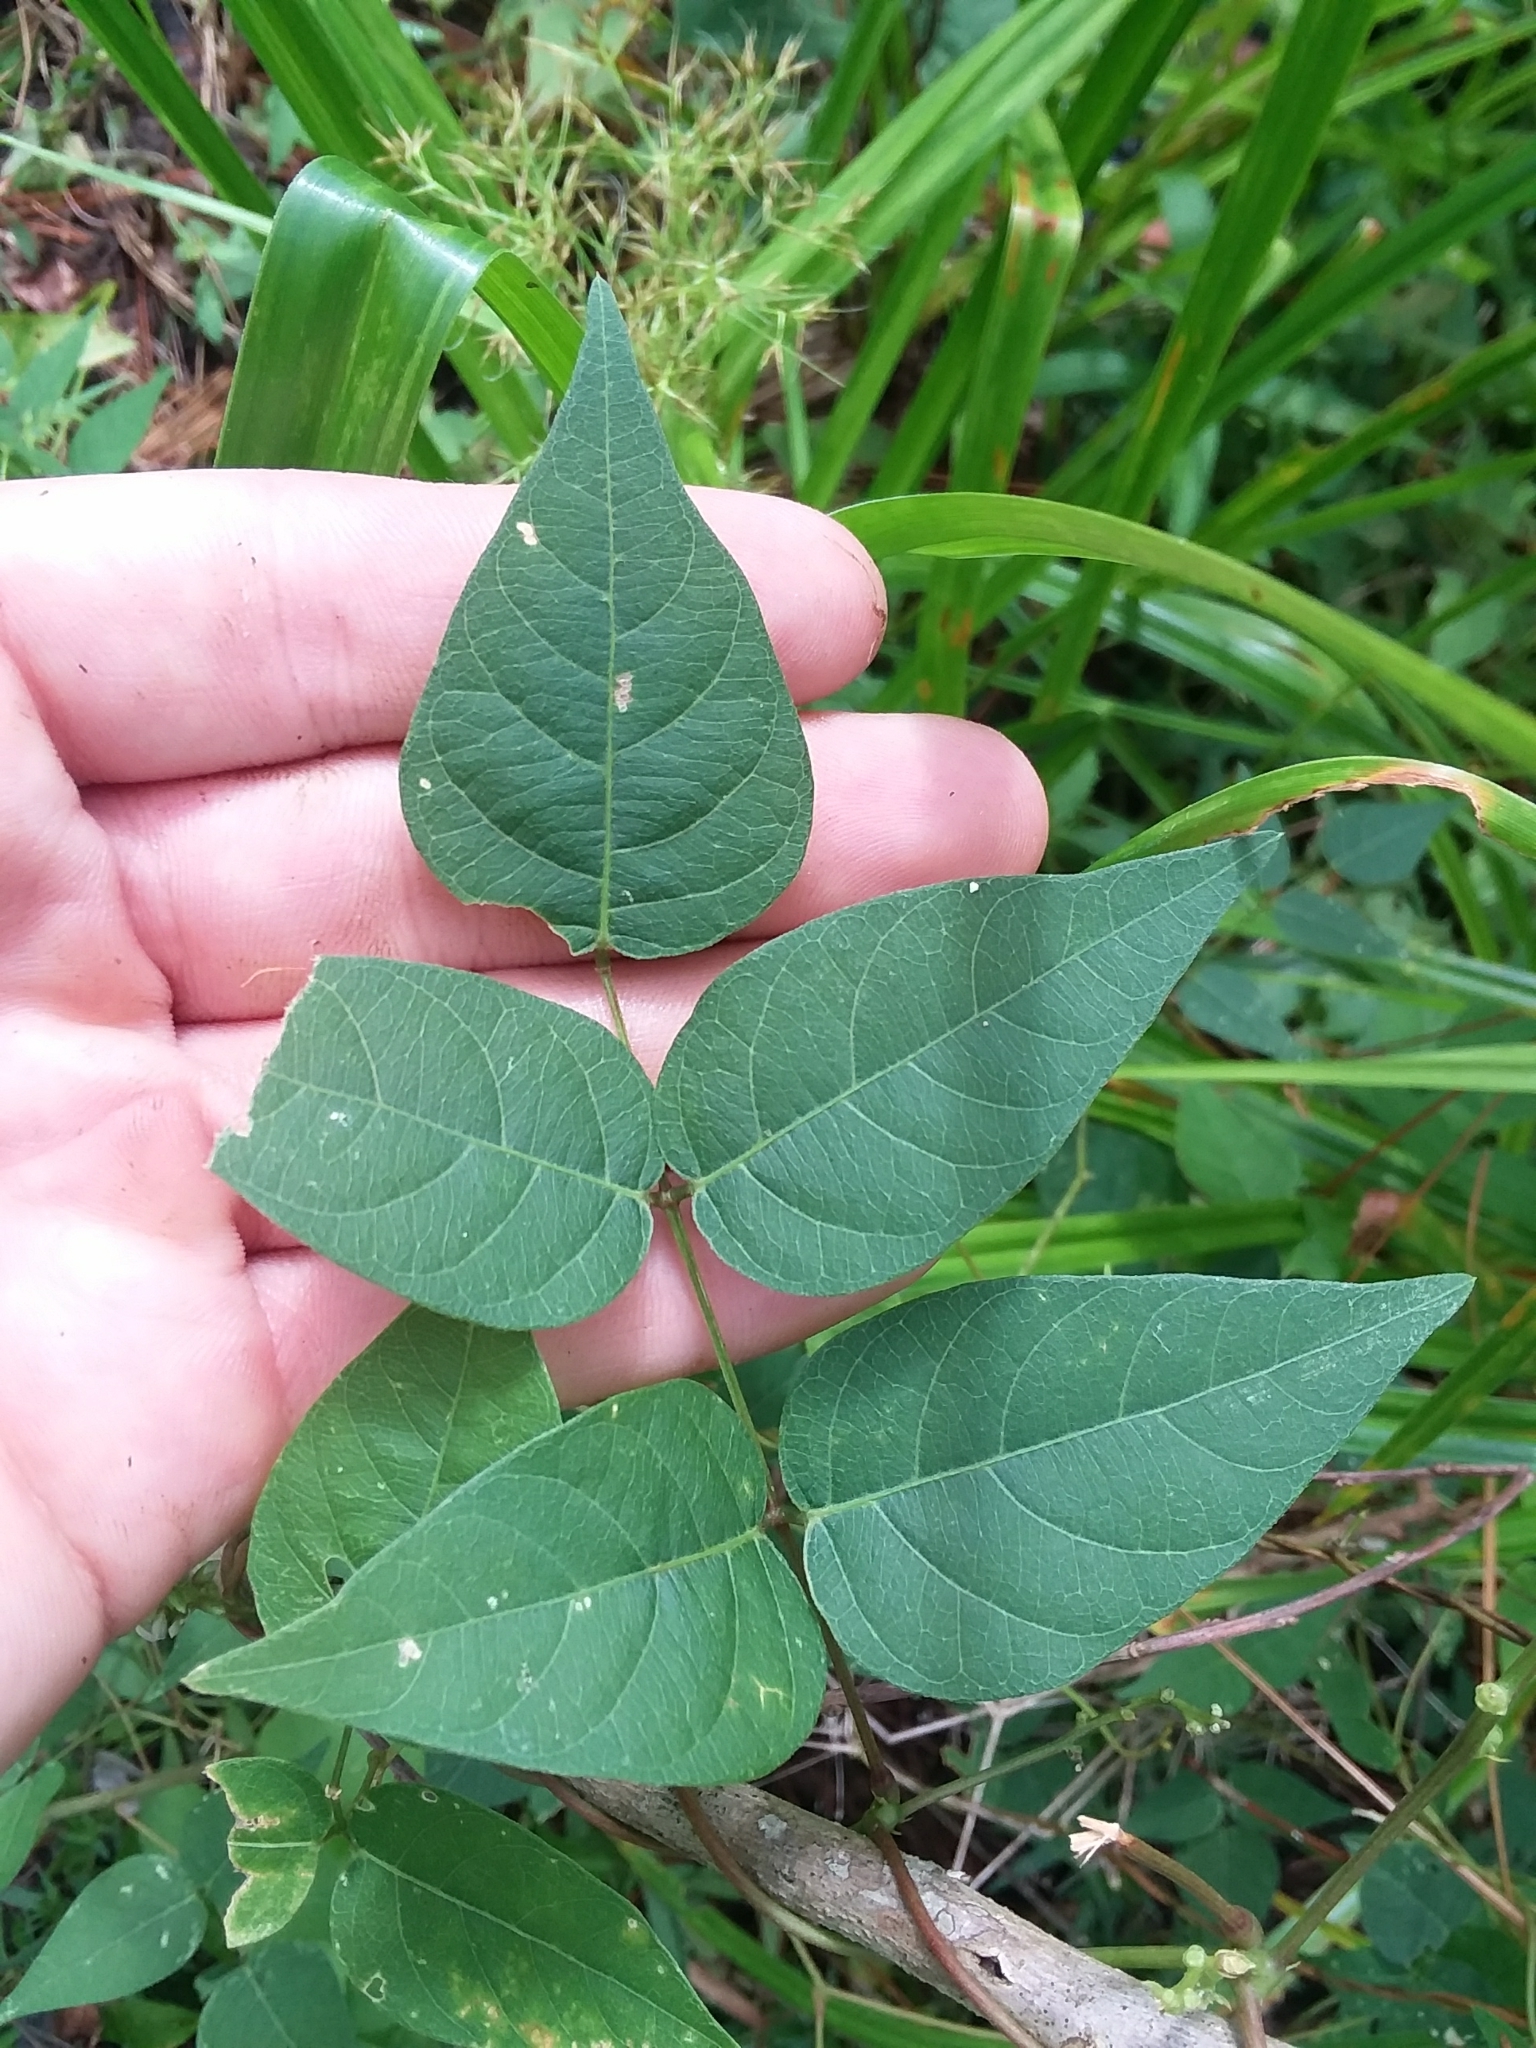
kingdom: Plantae
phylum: Tracheophyta
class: Magnoliopsida
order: Fabales
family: Fabaceae
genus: Apios
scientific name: Apios americana
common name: American potato-bean
